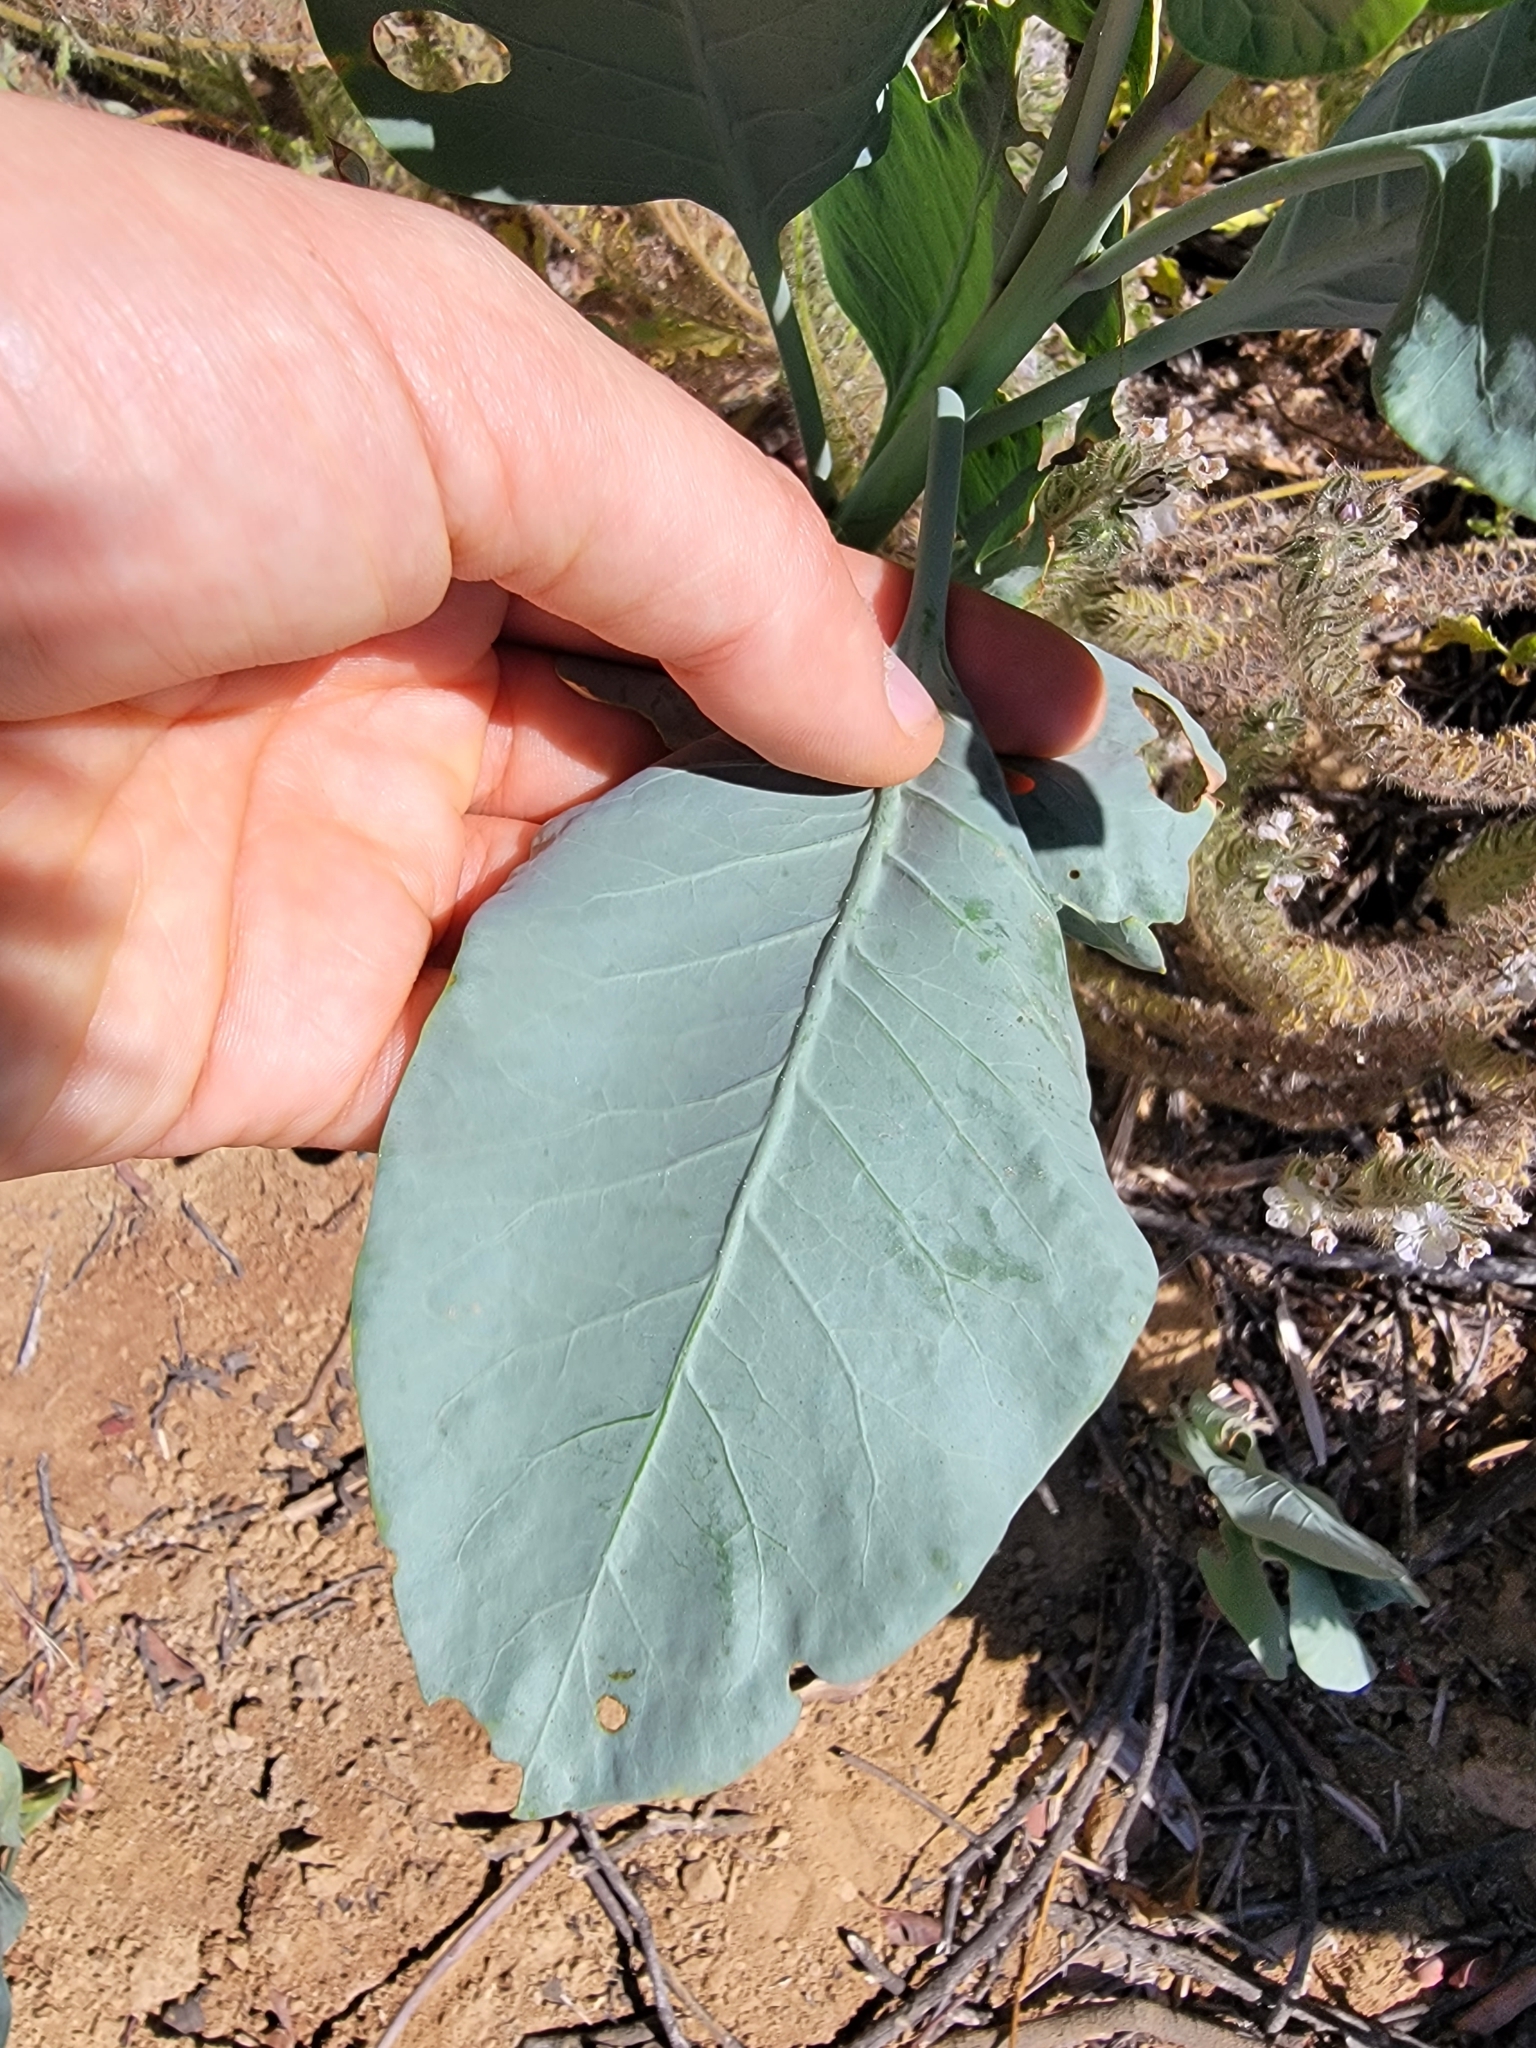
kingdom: Plantae
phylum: Tracheophyta
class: Magnoliopsida
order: Solanales
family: Solanaceae
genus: Nicotiana
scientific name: Nicotiana glauca
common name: Tree tobacco
